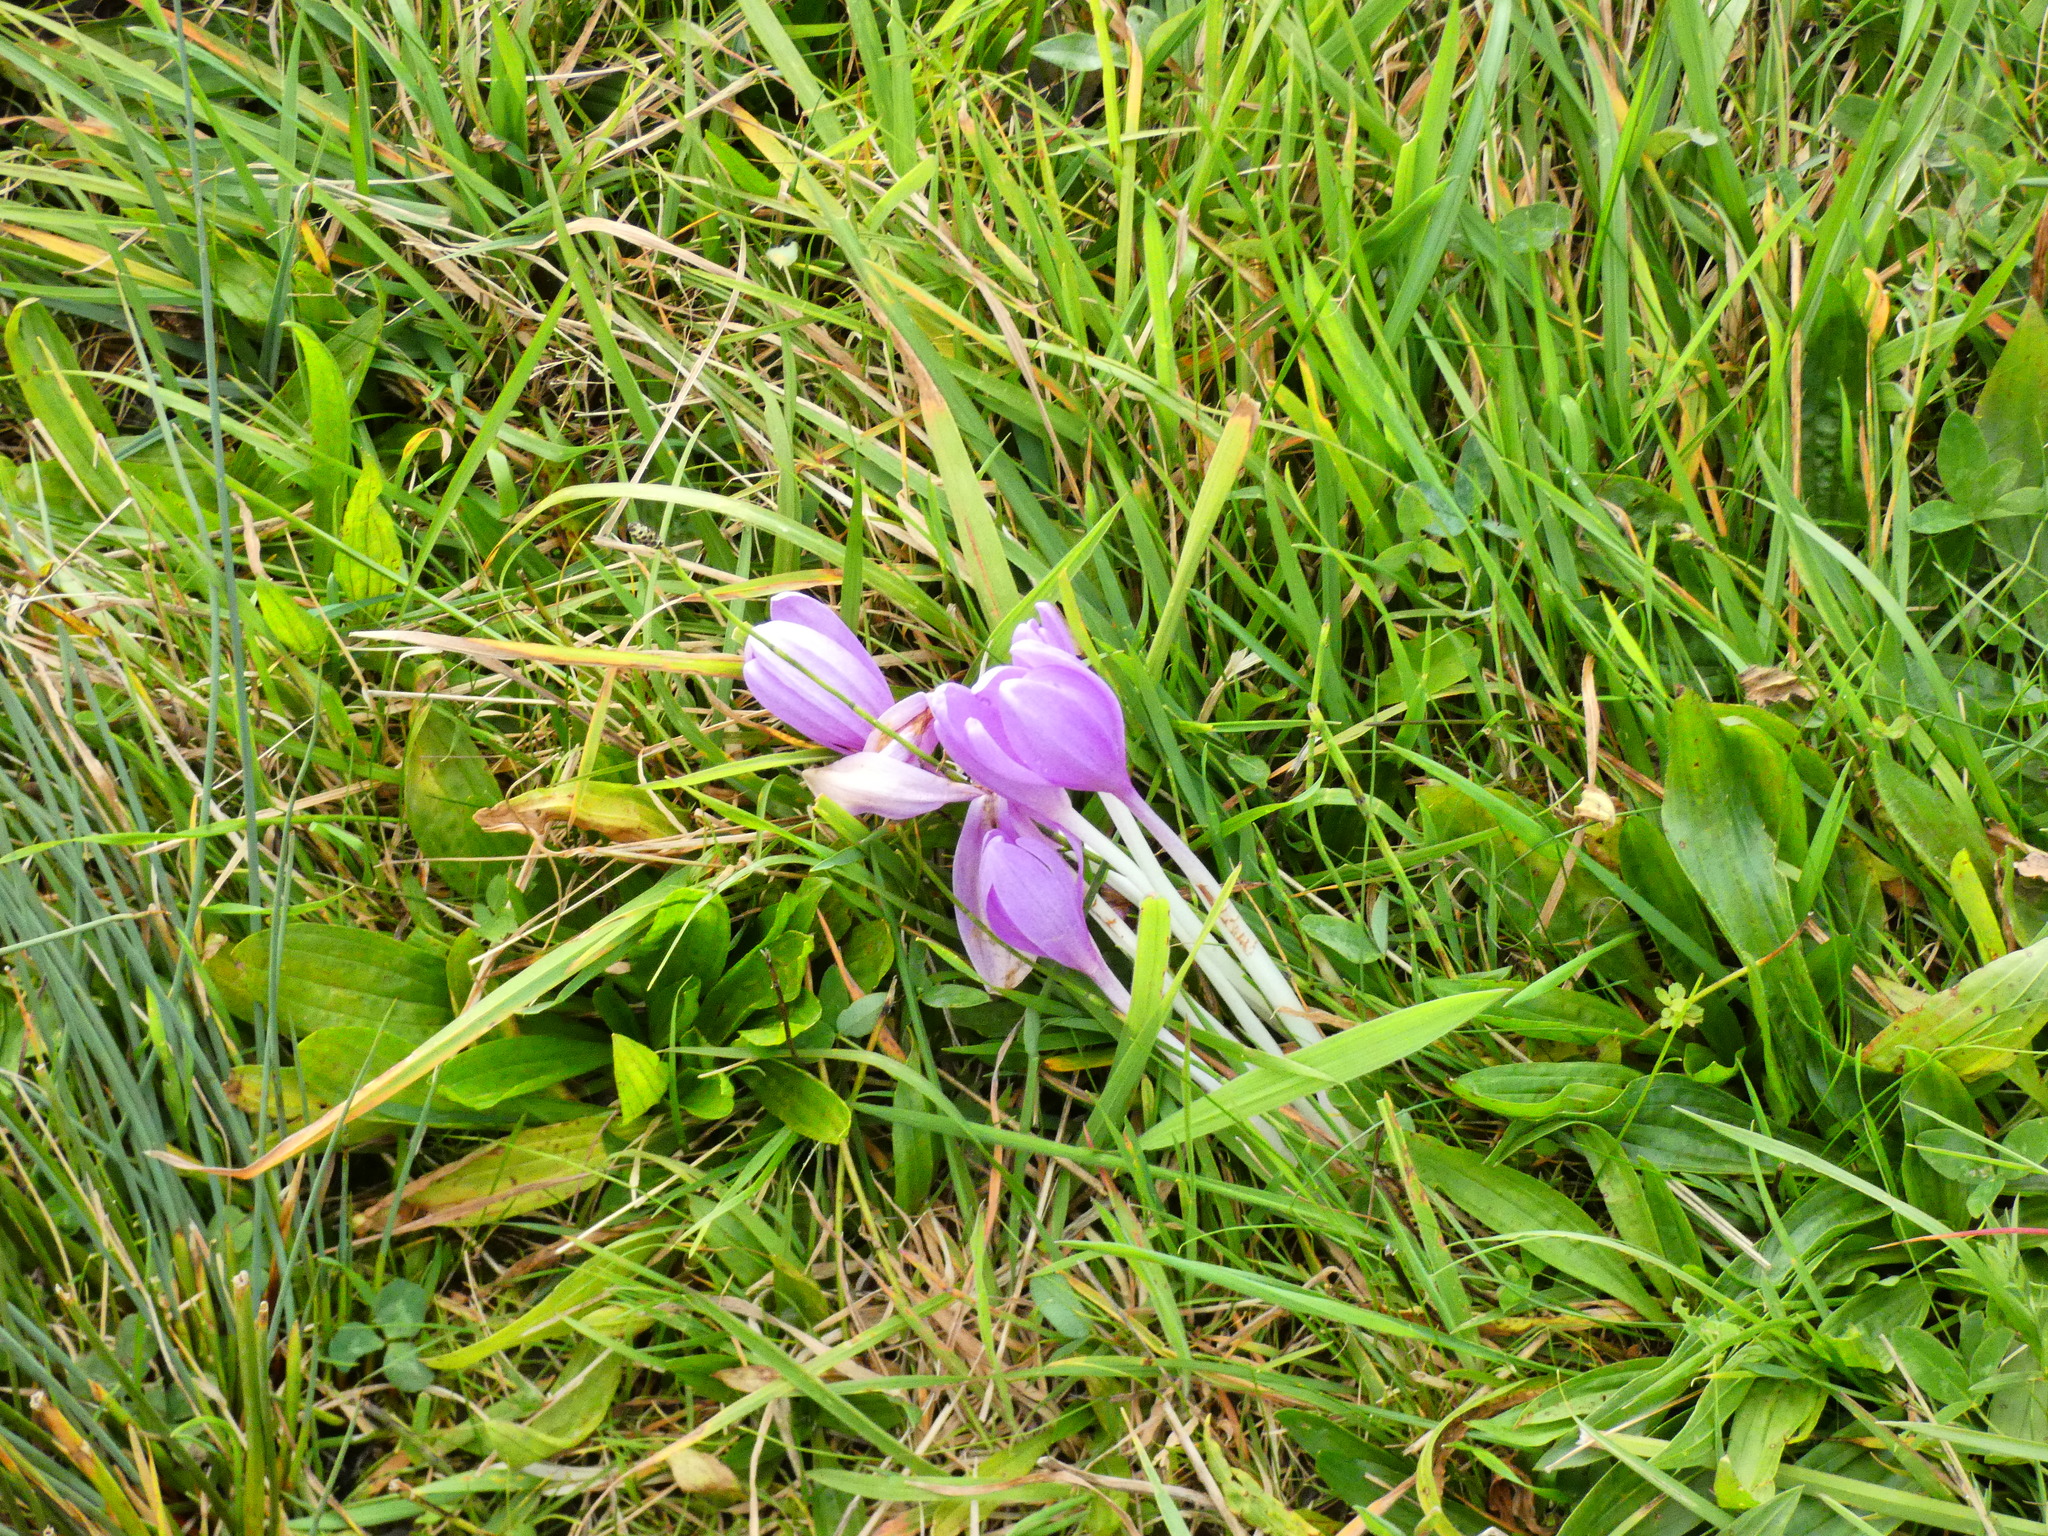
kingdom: Plantae
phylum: Tracheophyta
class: Liliopsida
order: Liliales
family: Colchicaceae
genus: Colchicum
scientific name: Colchicum autumnale
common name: Autumn crocus
